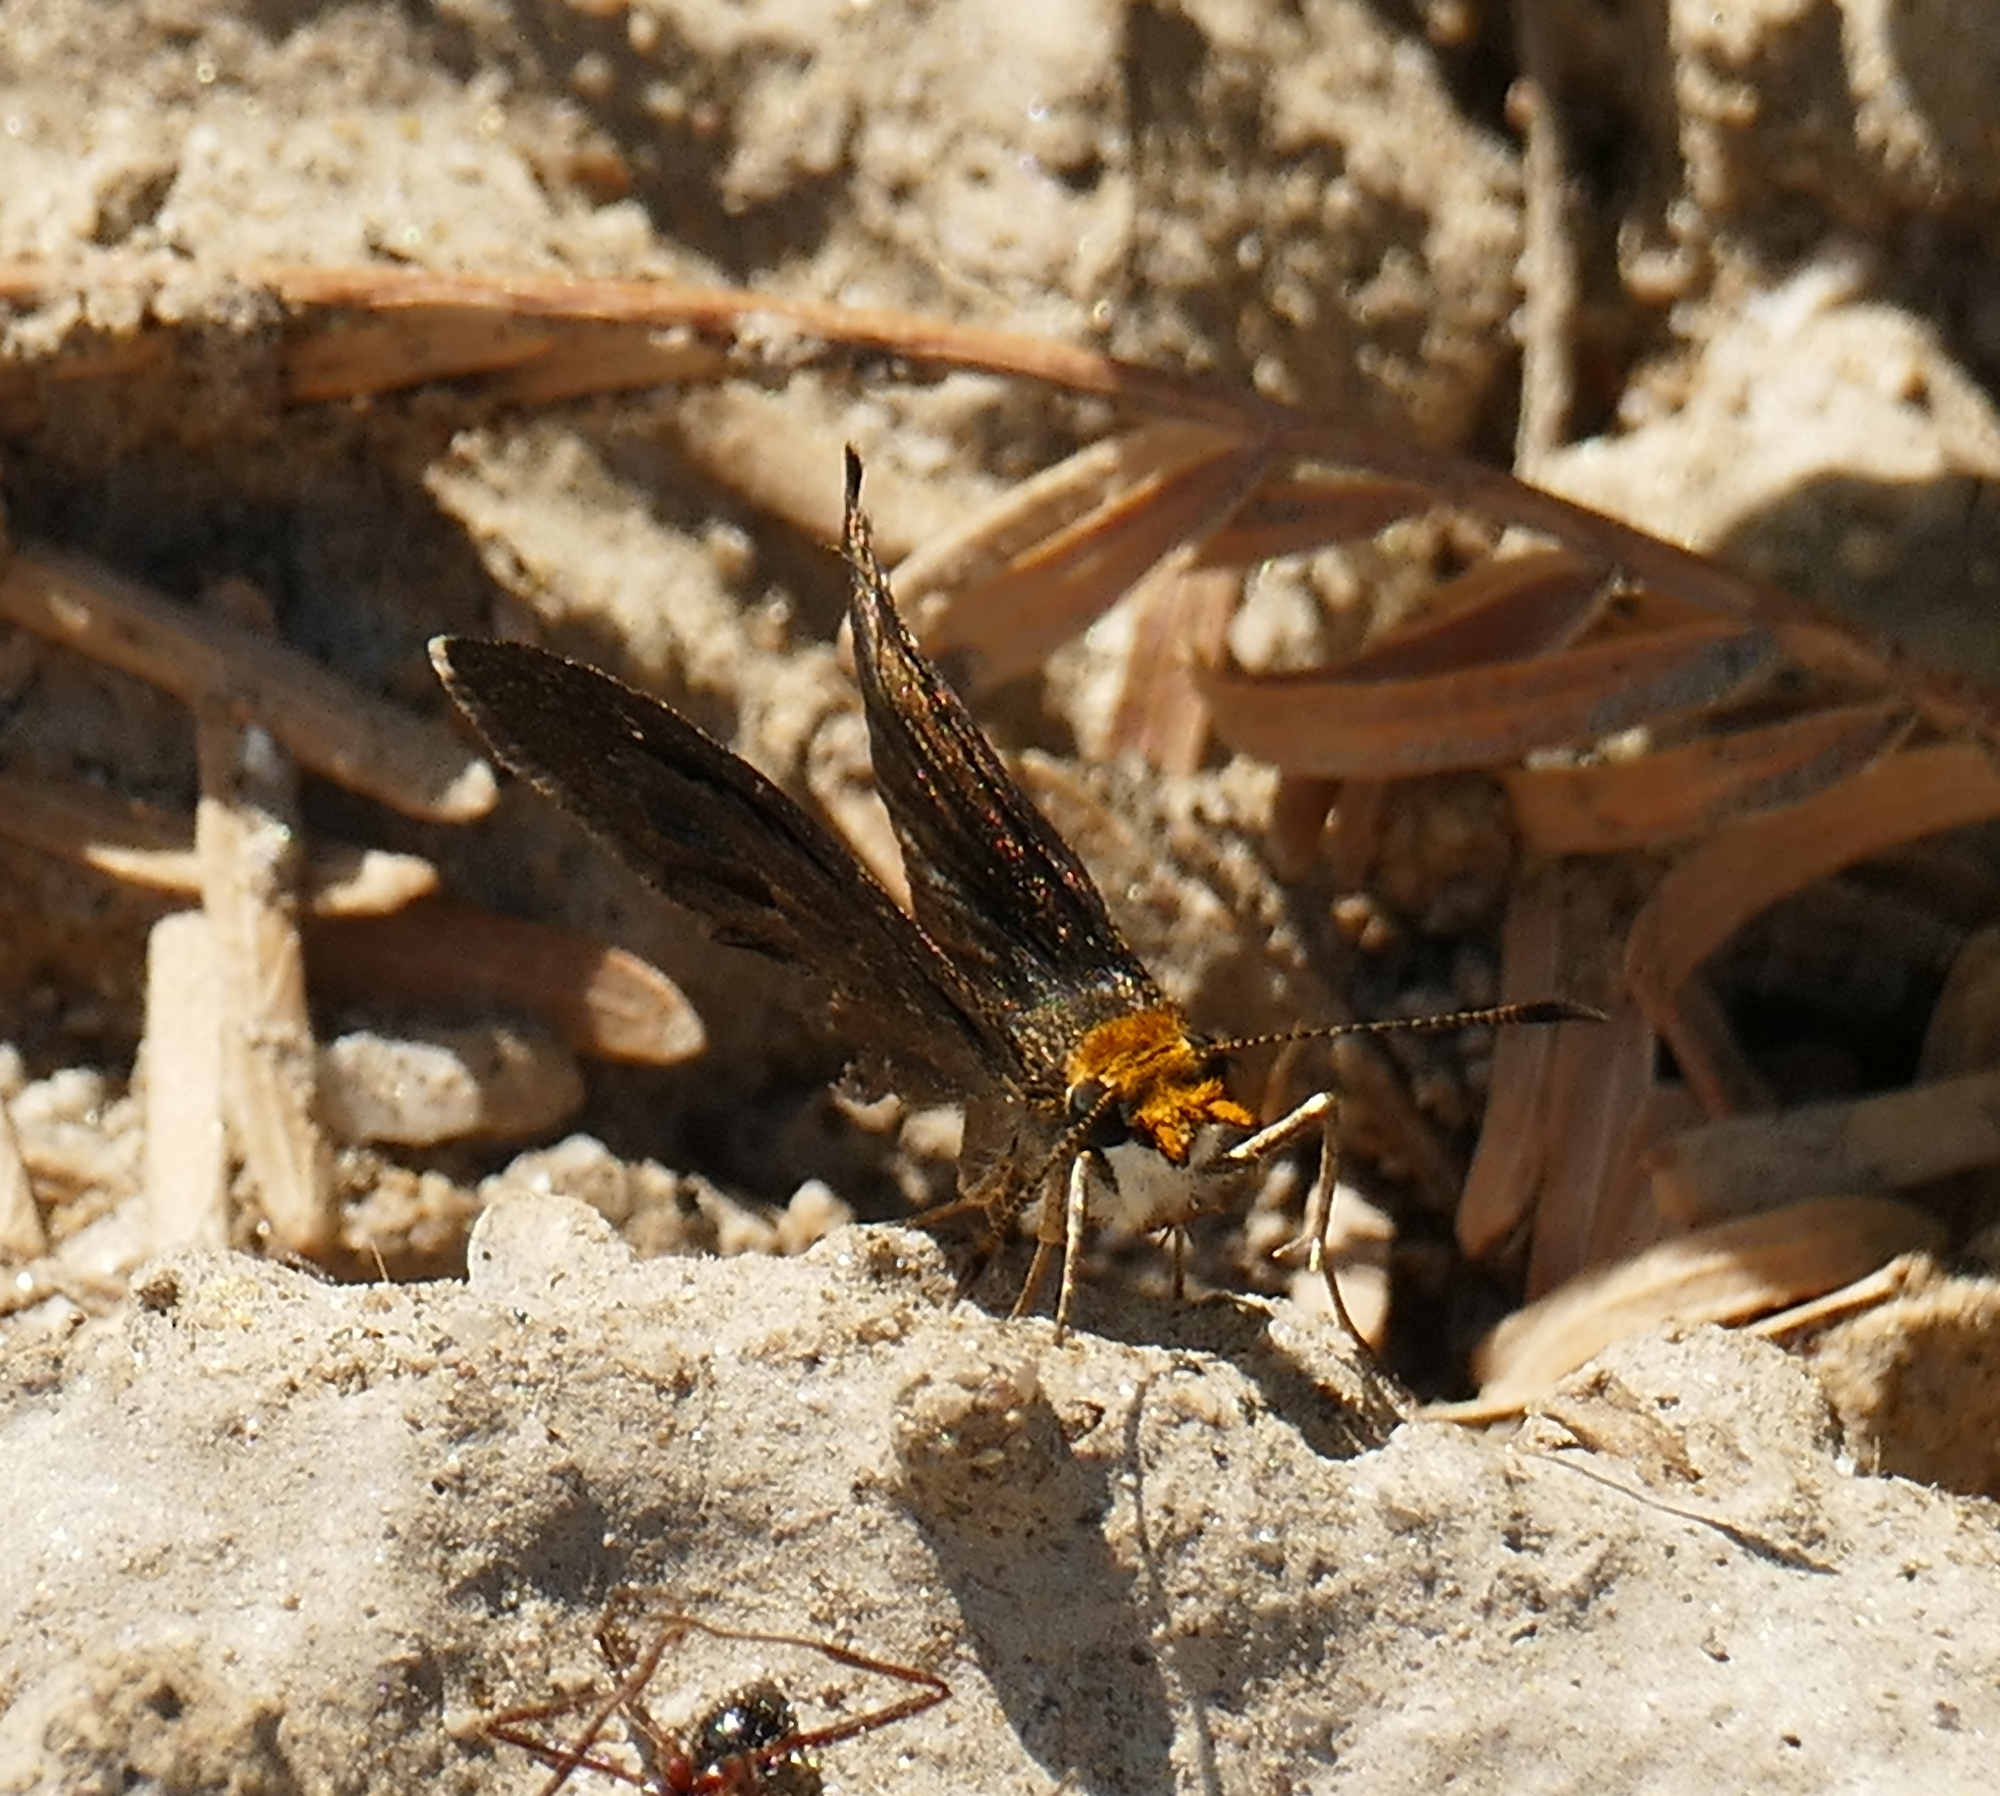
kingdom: Animalia
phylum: Arthropoda
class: Insecta
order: Lepidoptera
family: Hesperiidae
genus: Staphylus
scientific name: Staphylus ceos
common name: Golden-headed scallopwing
